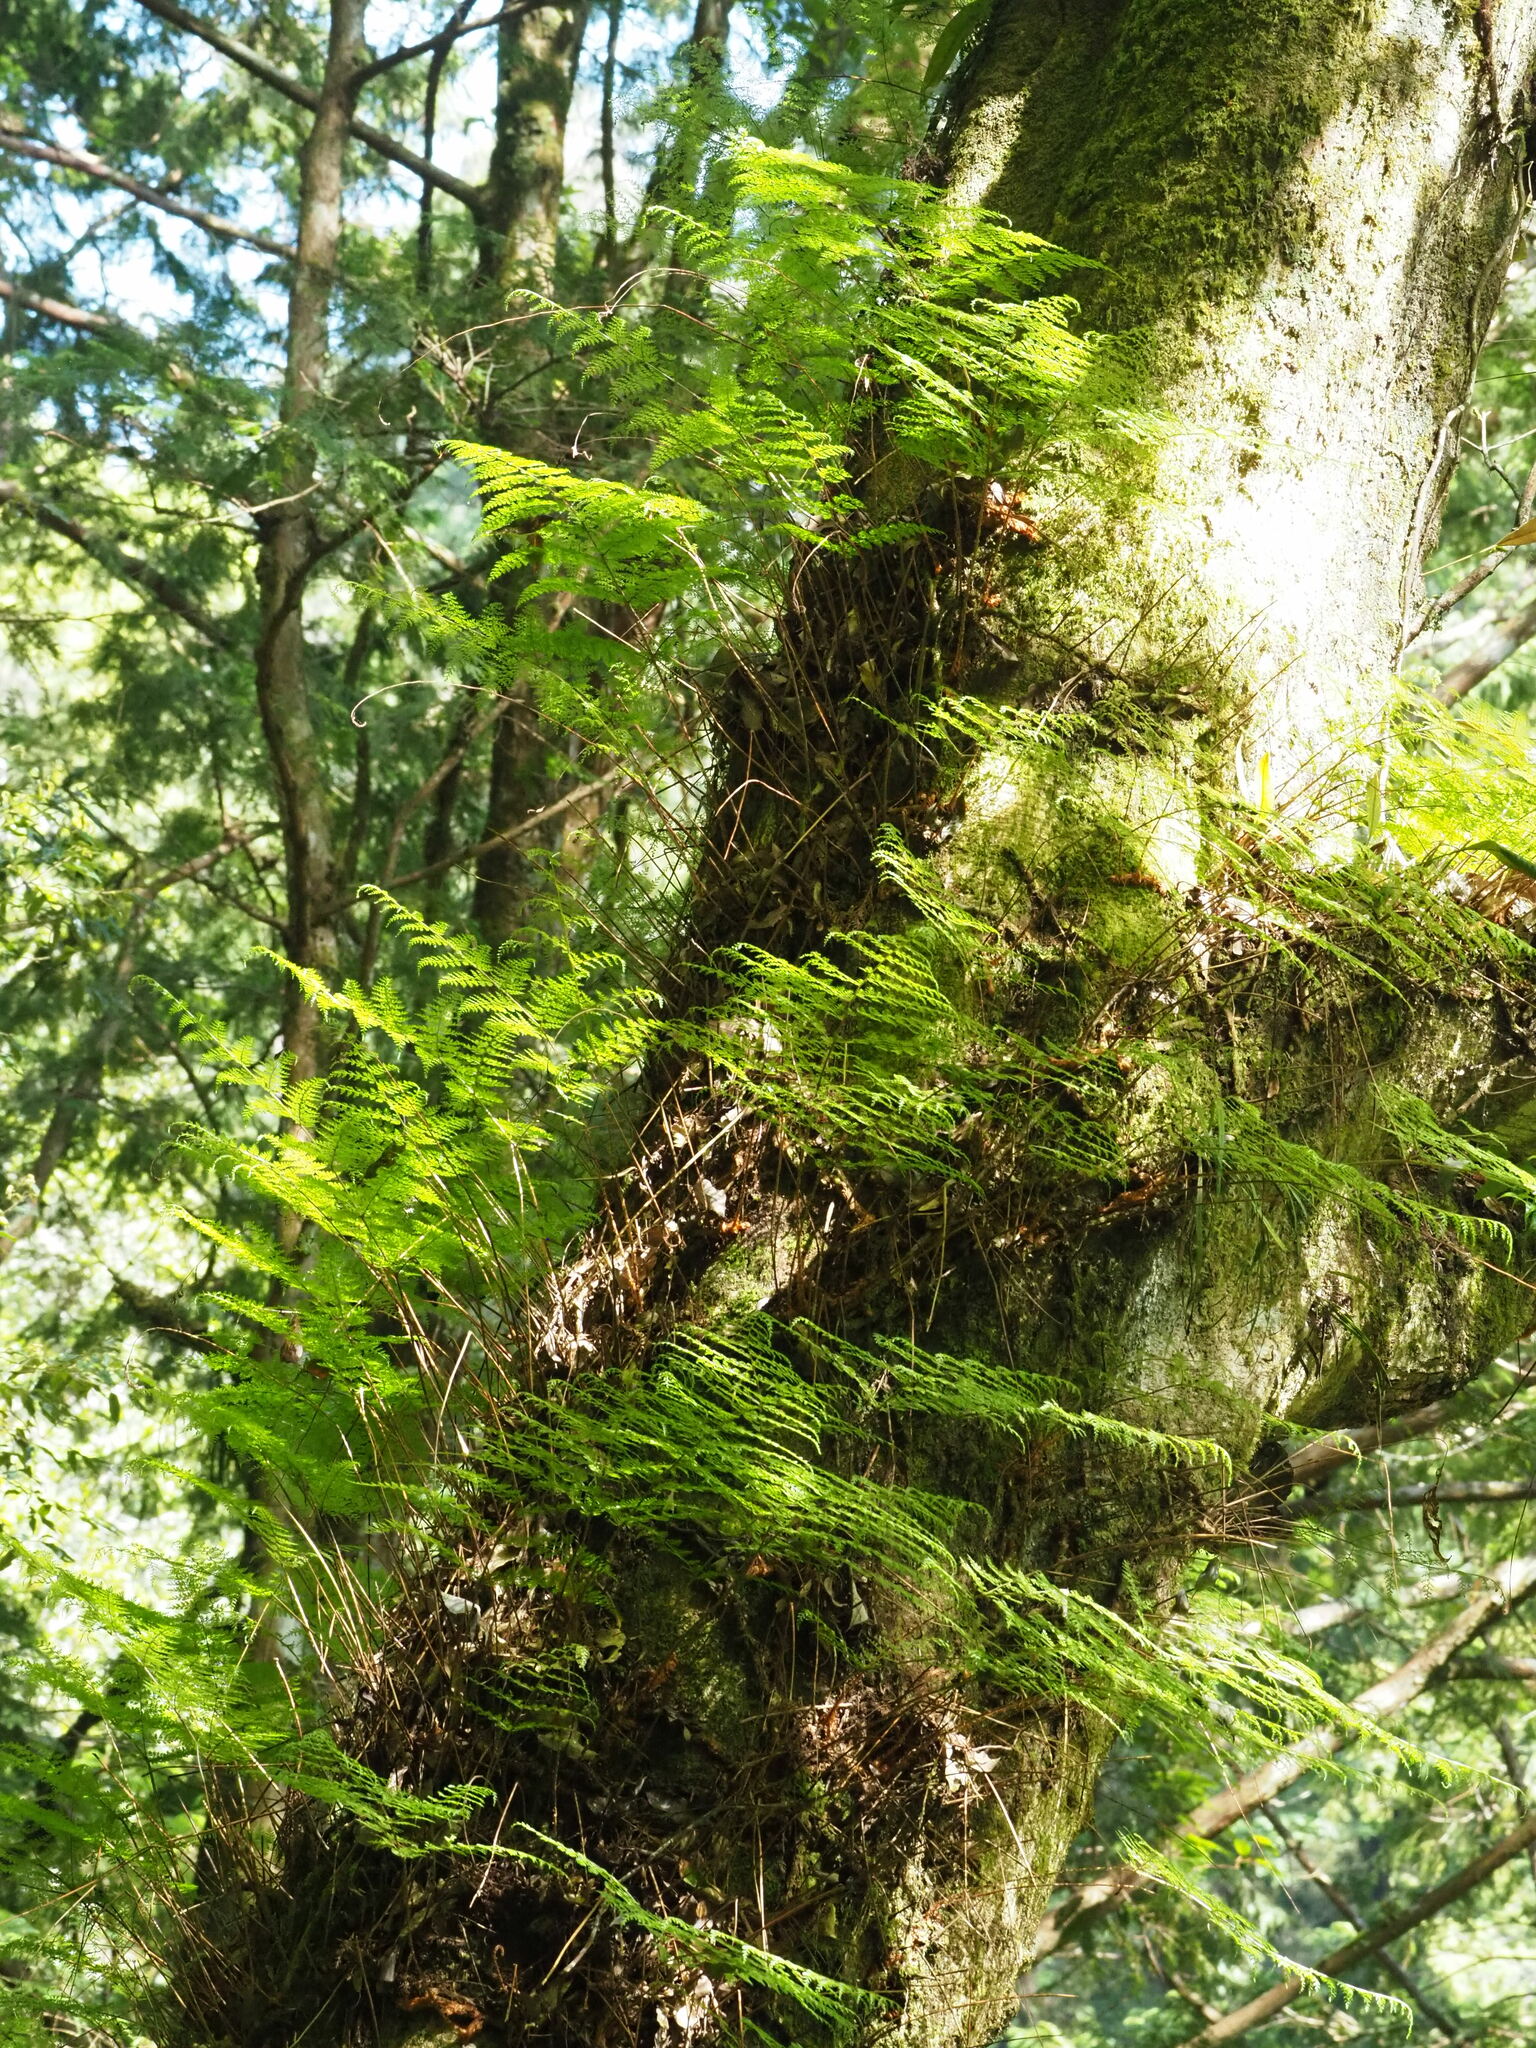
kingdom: Plantae
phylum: Tracheophyta
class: Polypodiopsida
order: Polypodiales
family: Davalliaceae
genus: Davallia
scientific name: Davallia perdurans
